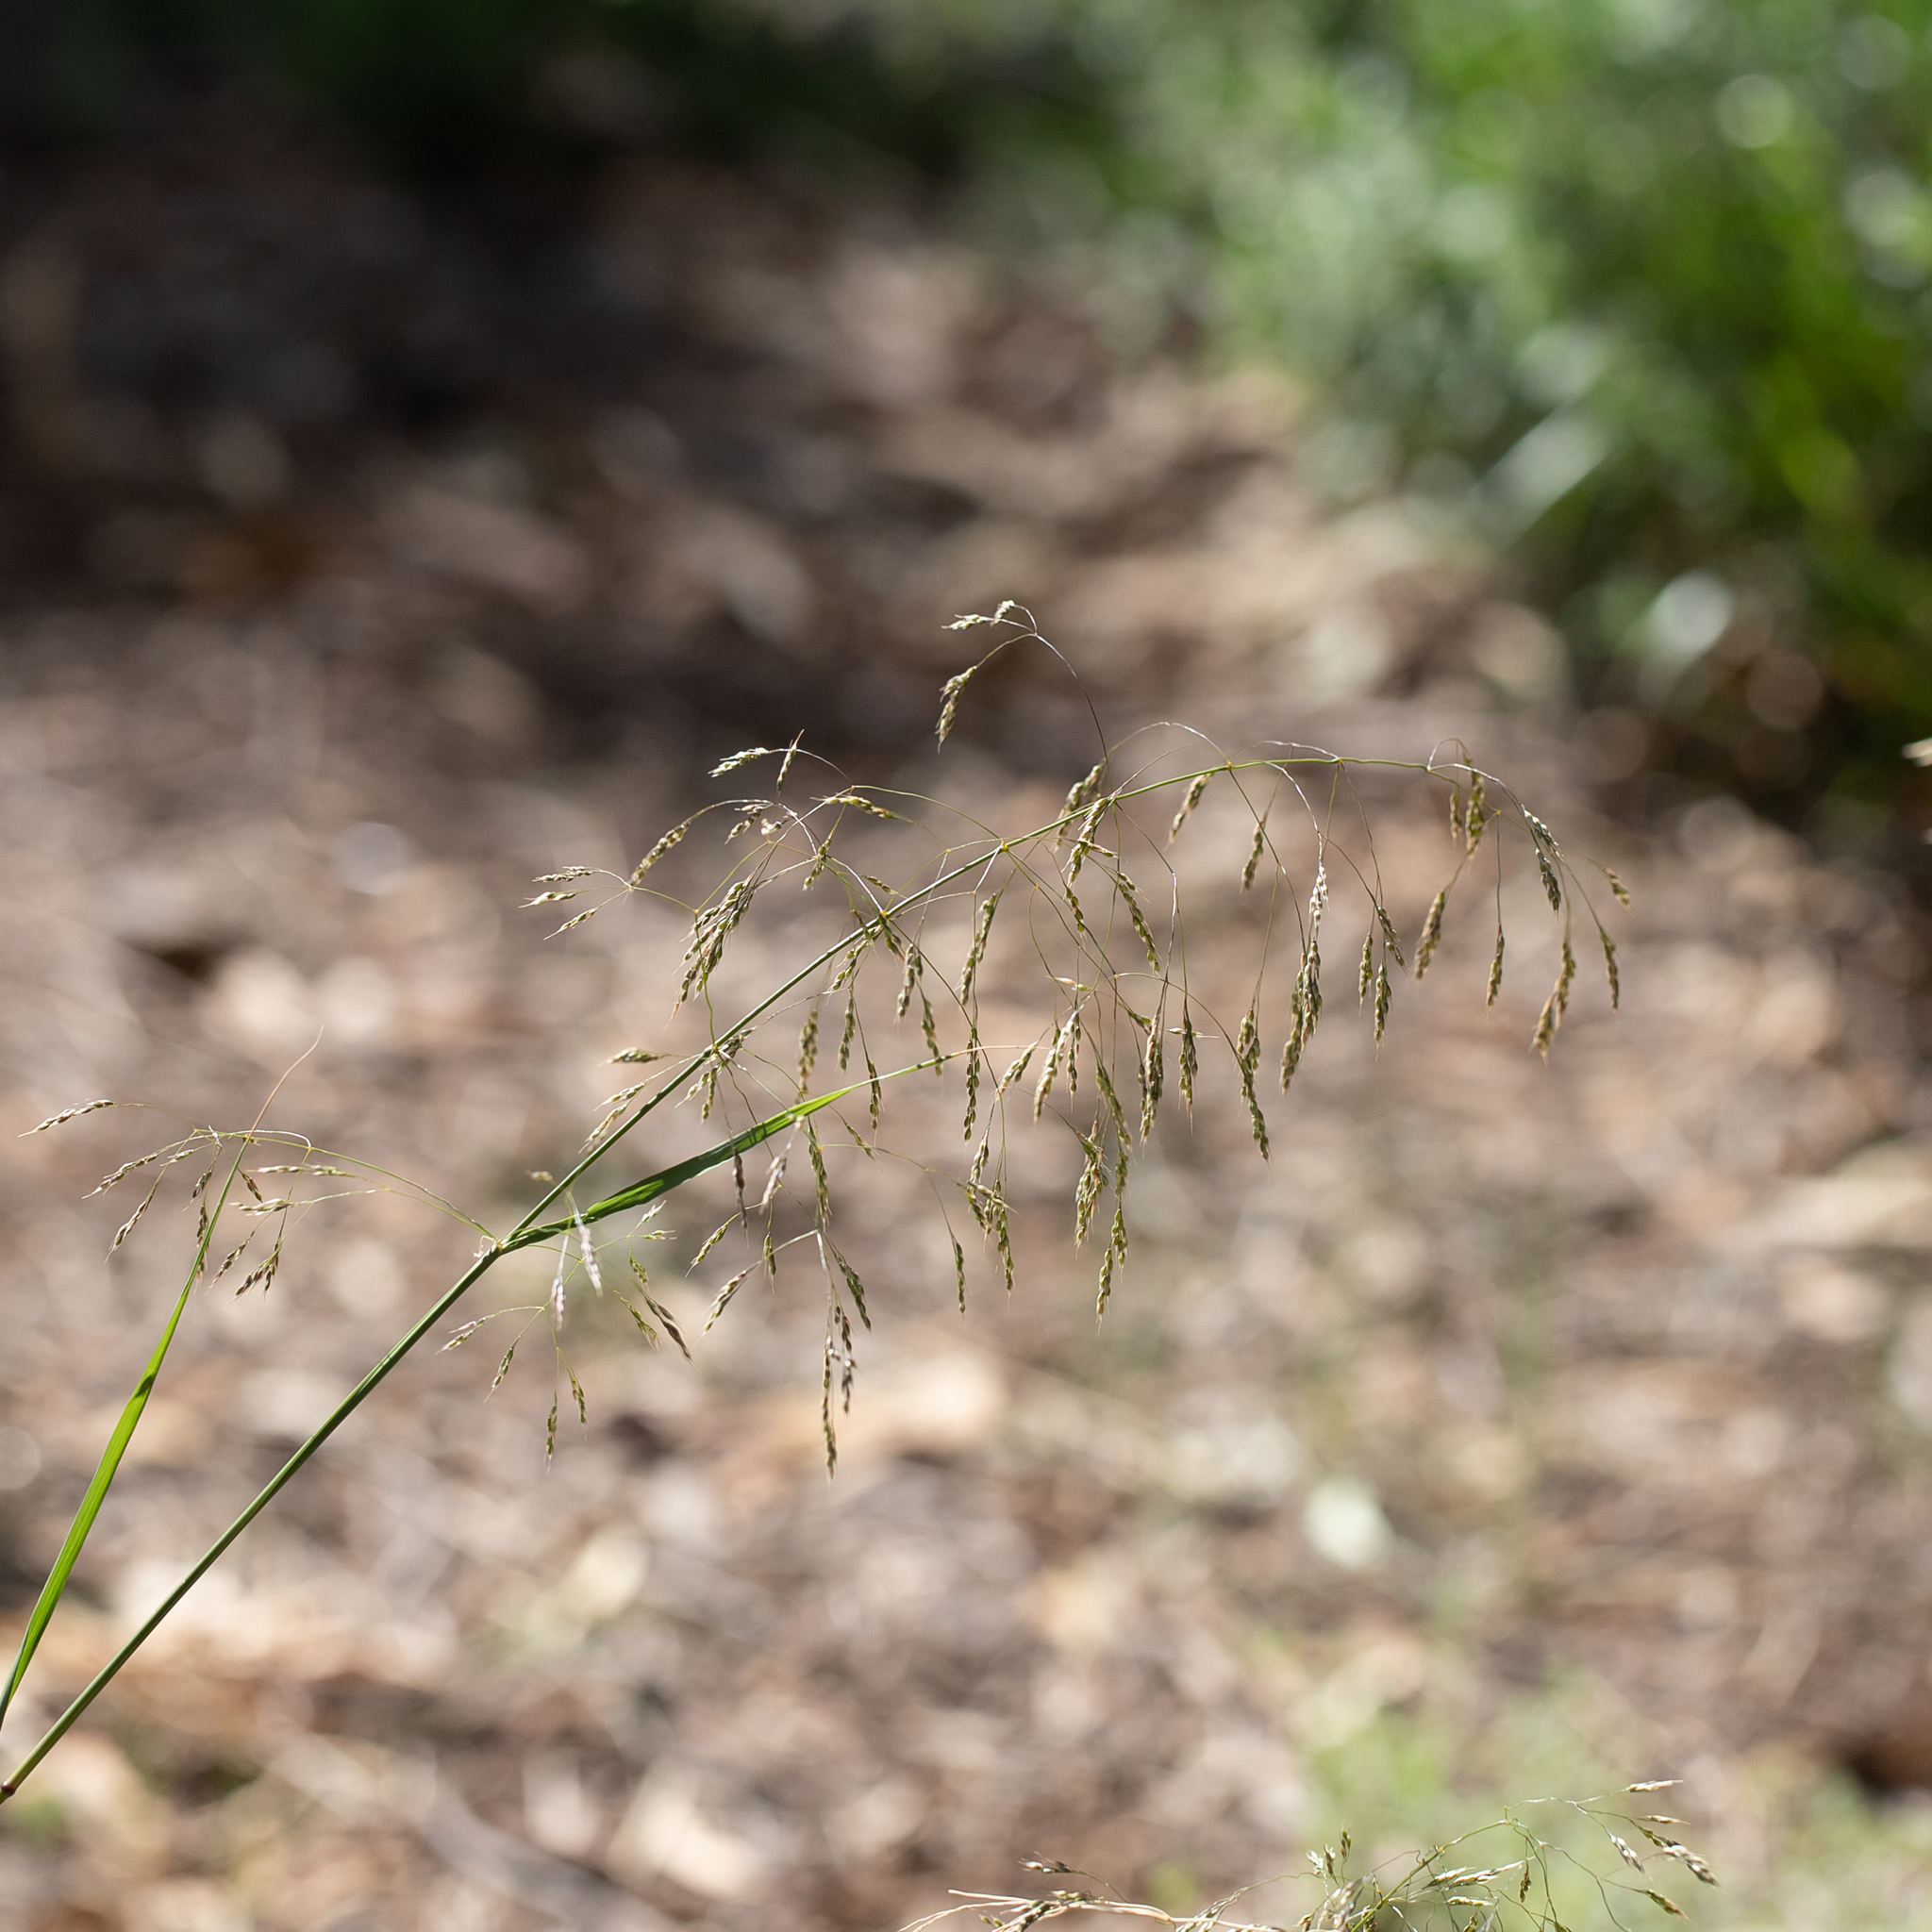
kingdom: Plantae
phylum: Tracheophyta
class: Liliopsida
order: Poales
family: Poaceae
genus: Oloptum
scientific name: Oloptum miliaceum
